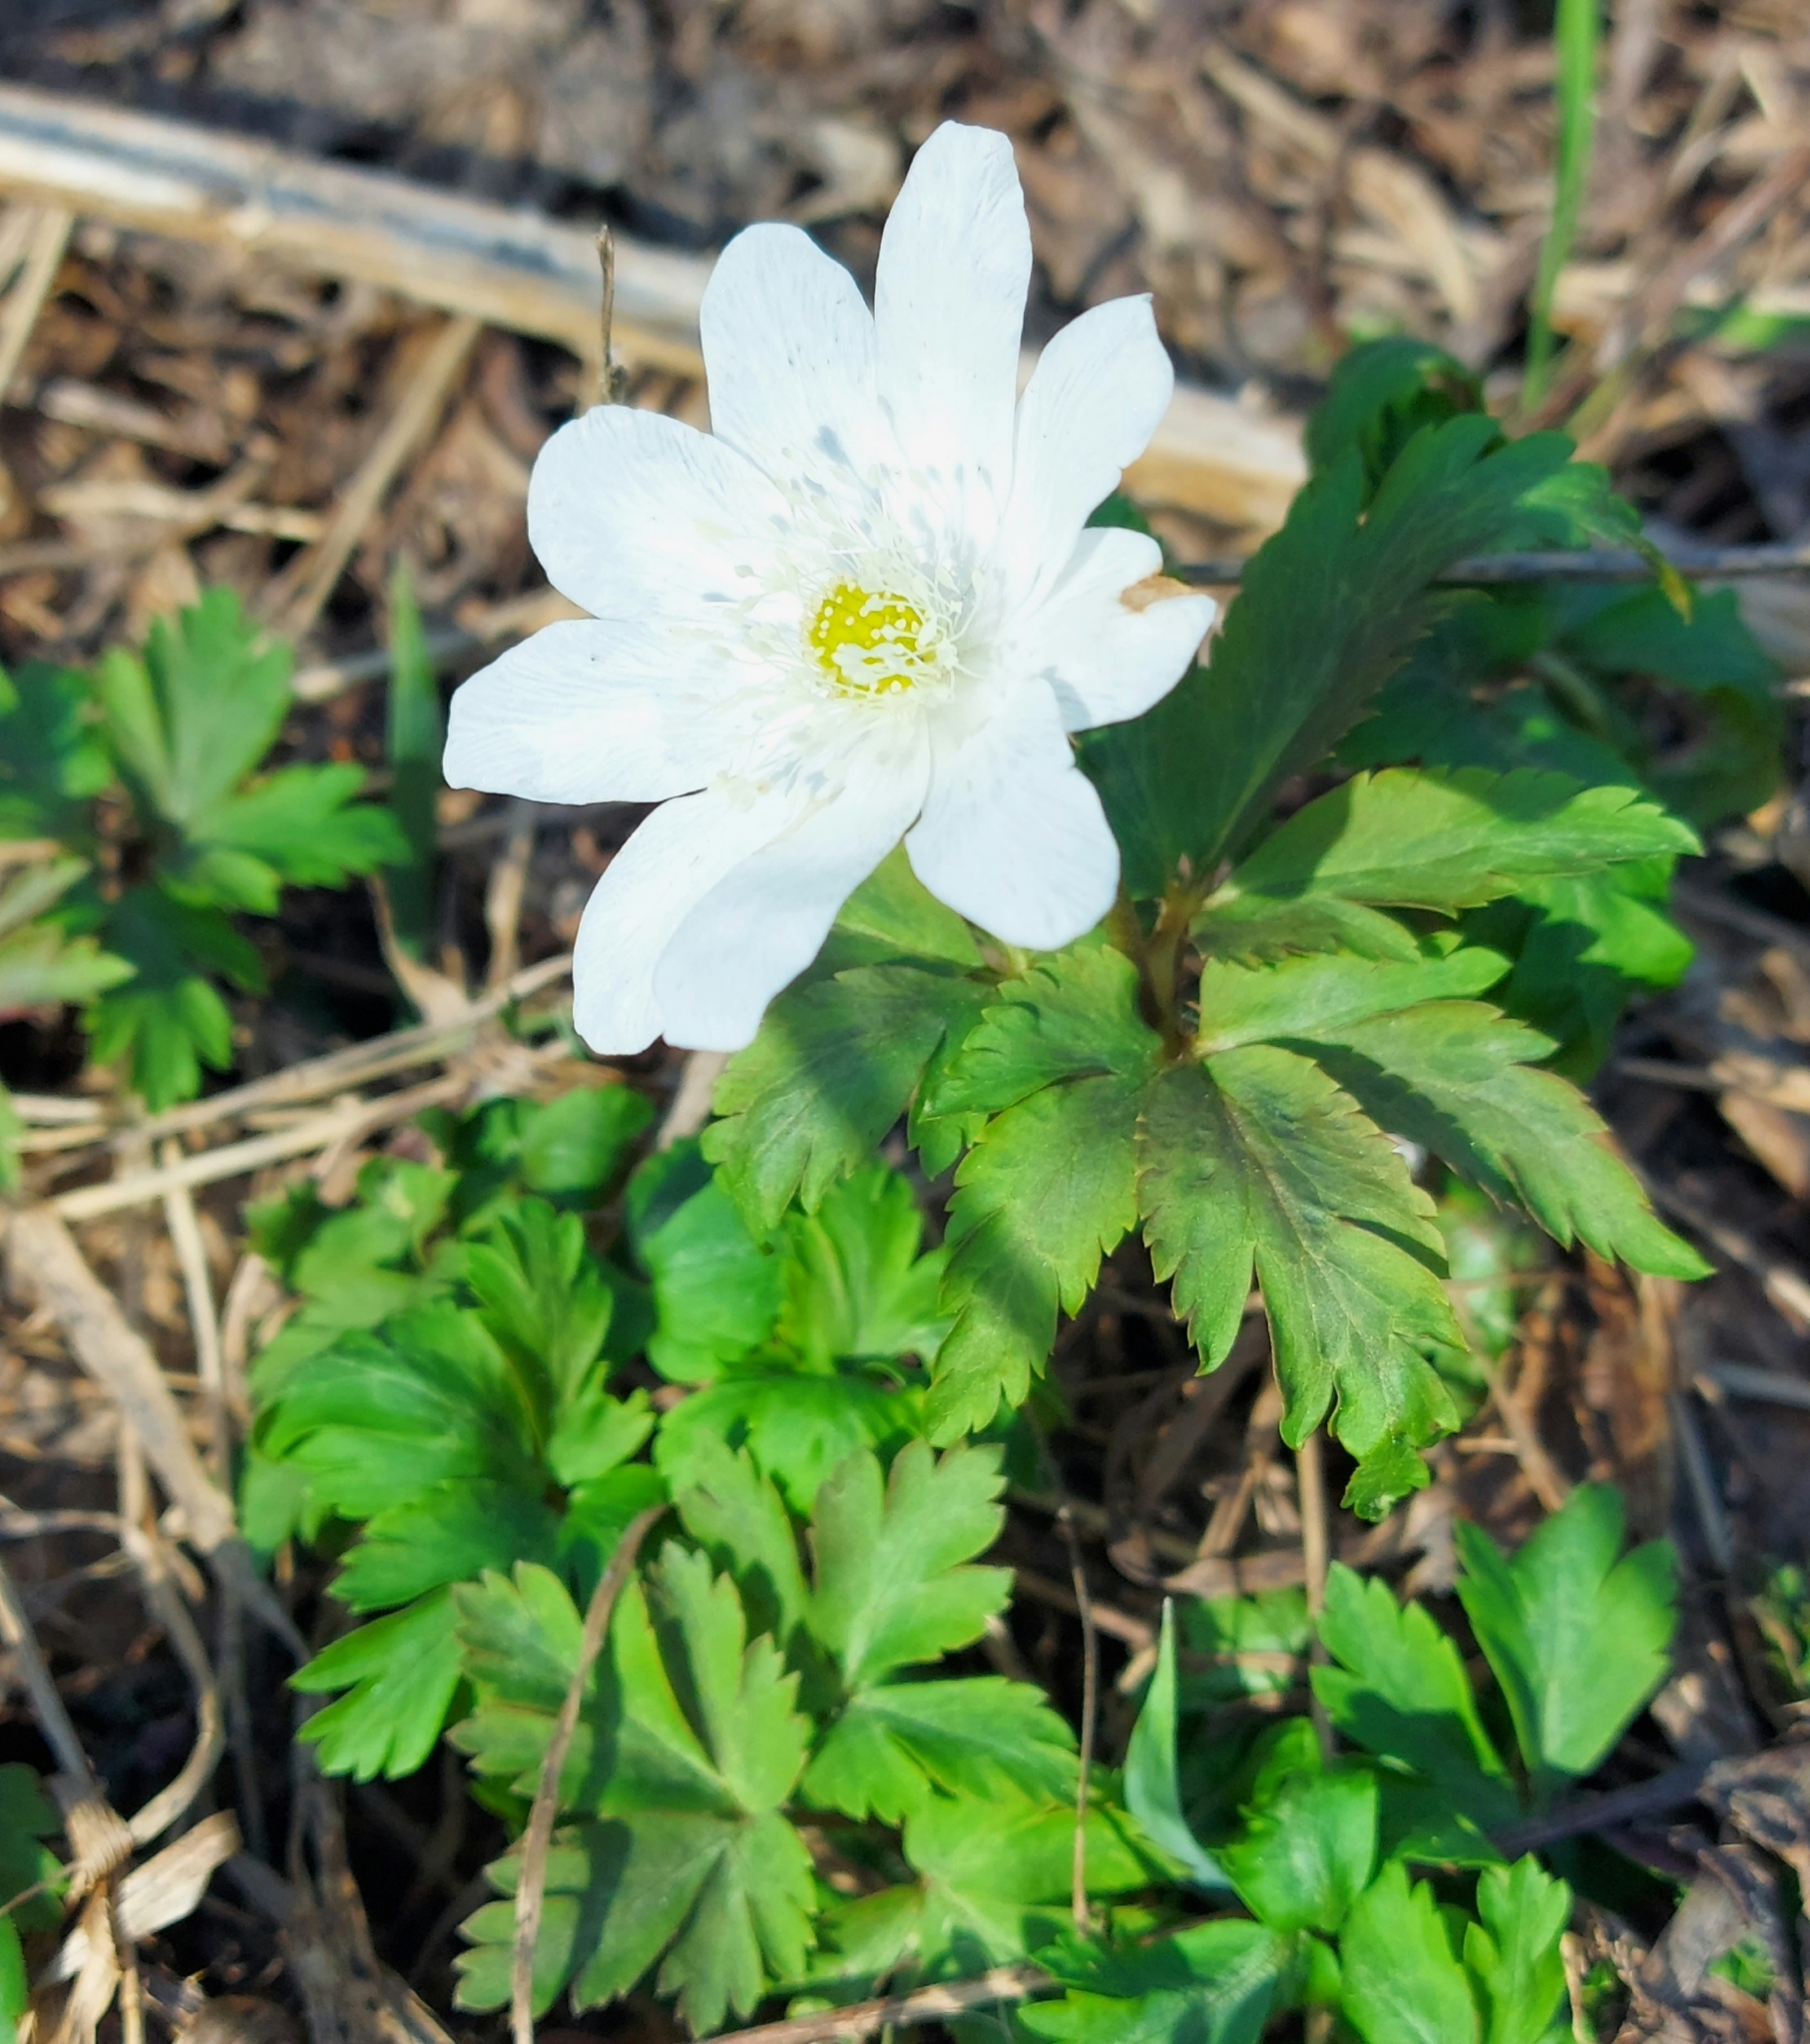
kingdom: Plantae
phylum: Tracheophyta
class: Magnoliopsida
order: Ranunculales
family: Ranunculaceae
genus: Anemone
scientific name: Anemone altaica
